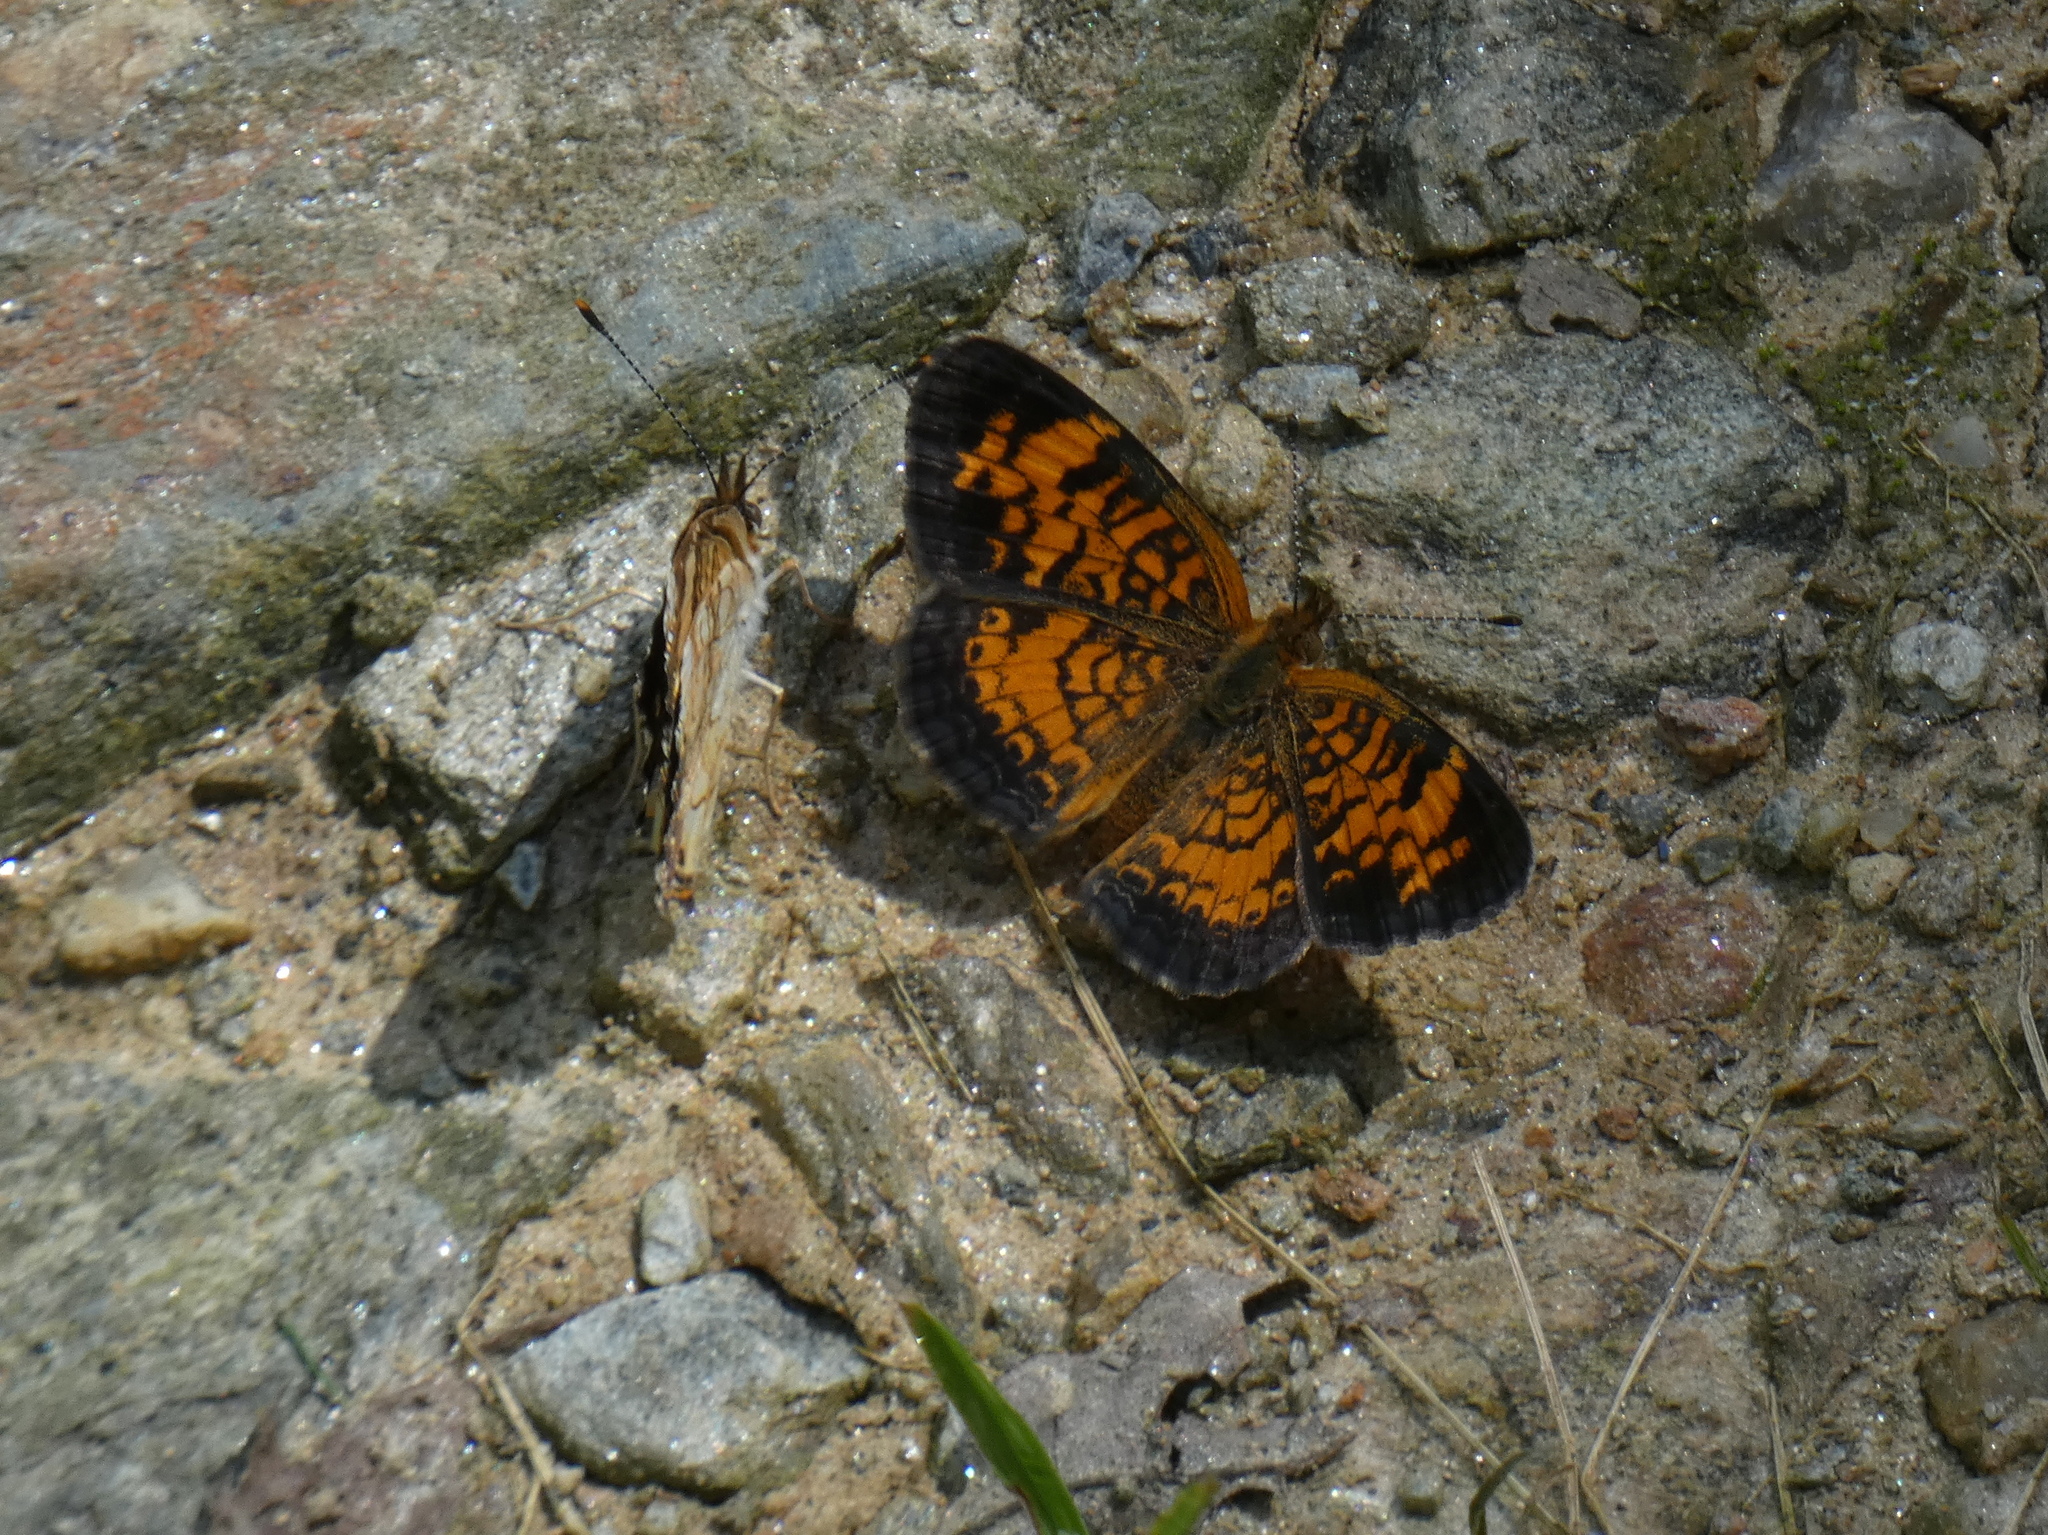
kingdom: Animalia
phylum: Arthropoda
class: Insecta
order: Lepidoptera
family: Nymphalidae
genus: Phyciodes
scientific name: Phyciodes tharos
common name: Pearl crescent
